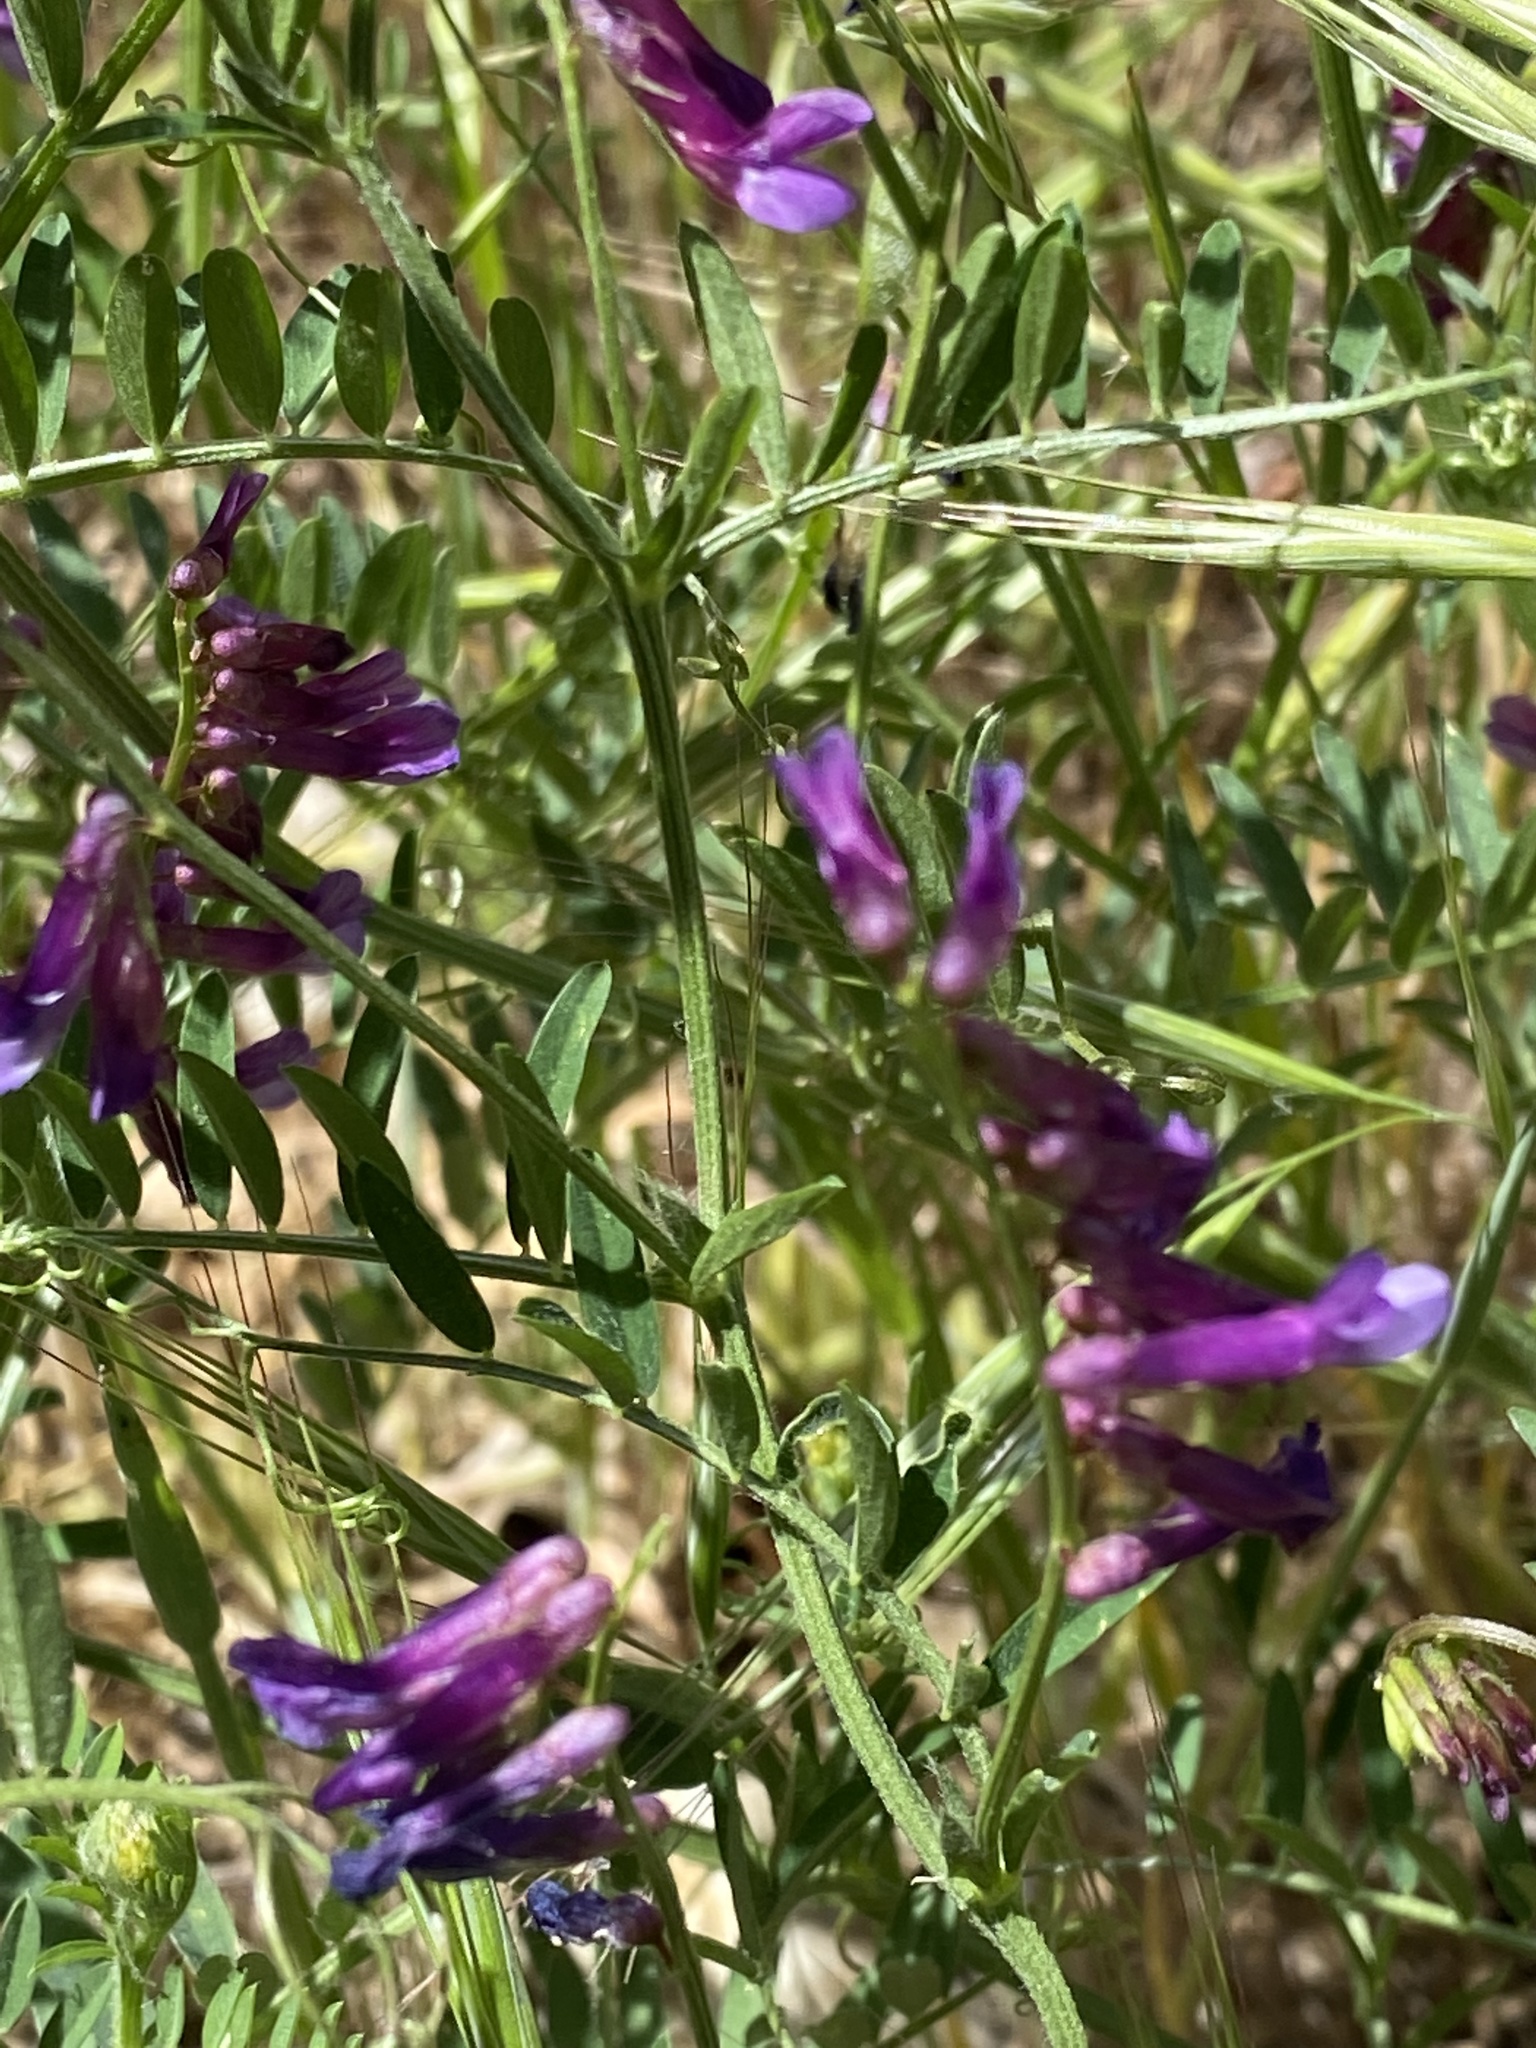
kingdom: Plantae
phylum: Tracheophyta
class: Magnoliopsida
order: Fabales
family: Fabaceae
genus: Vicia
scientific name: Vicia villosa
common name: Fodder vetch
